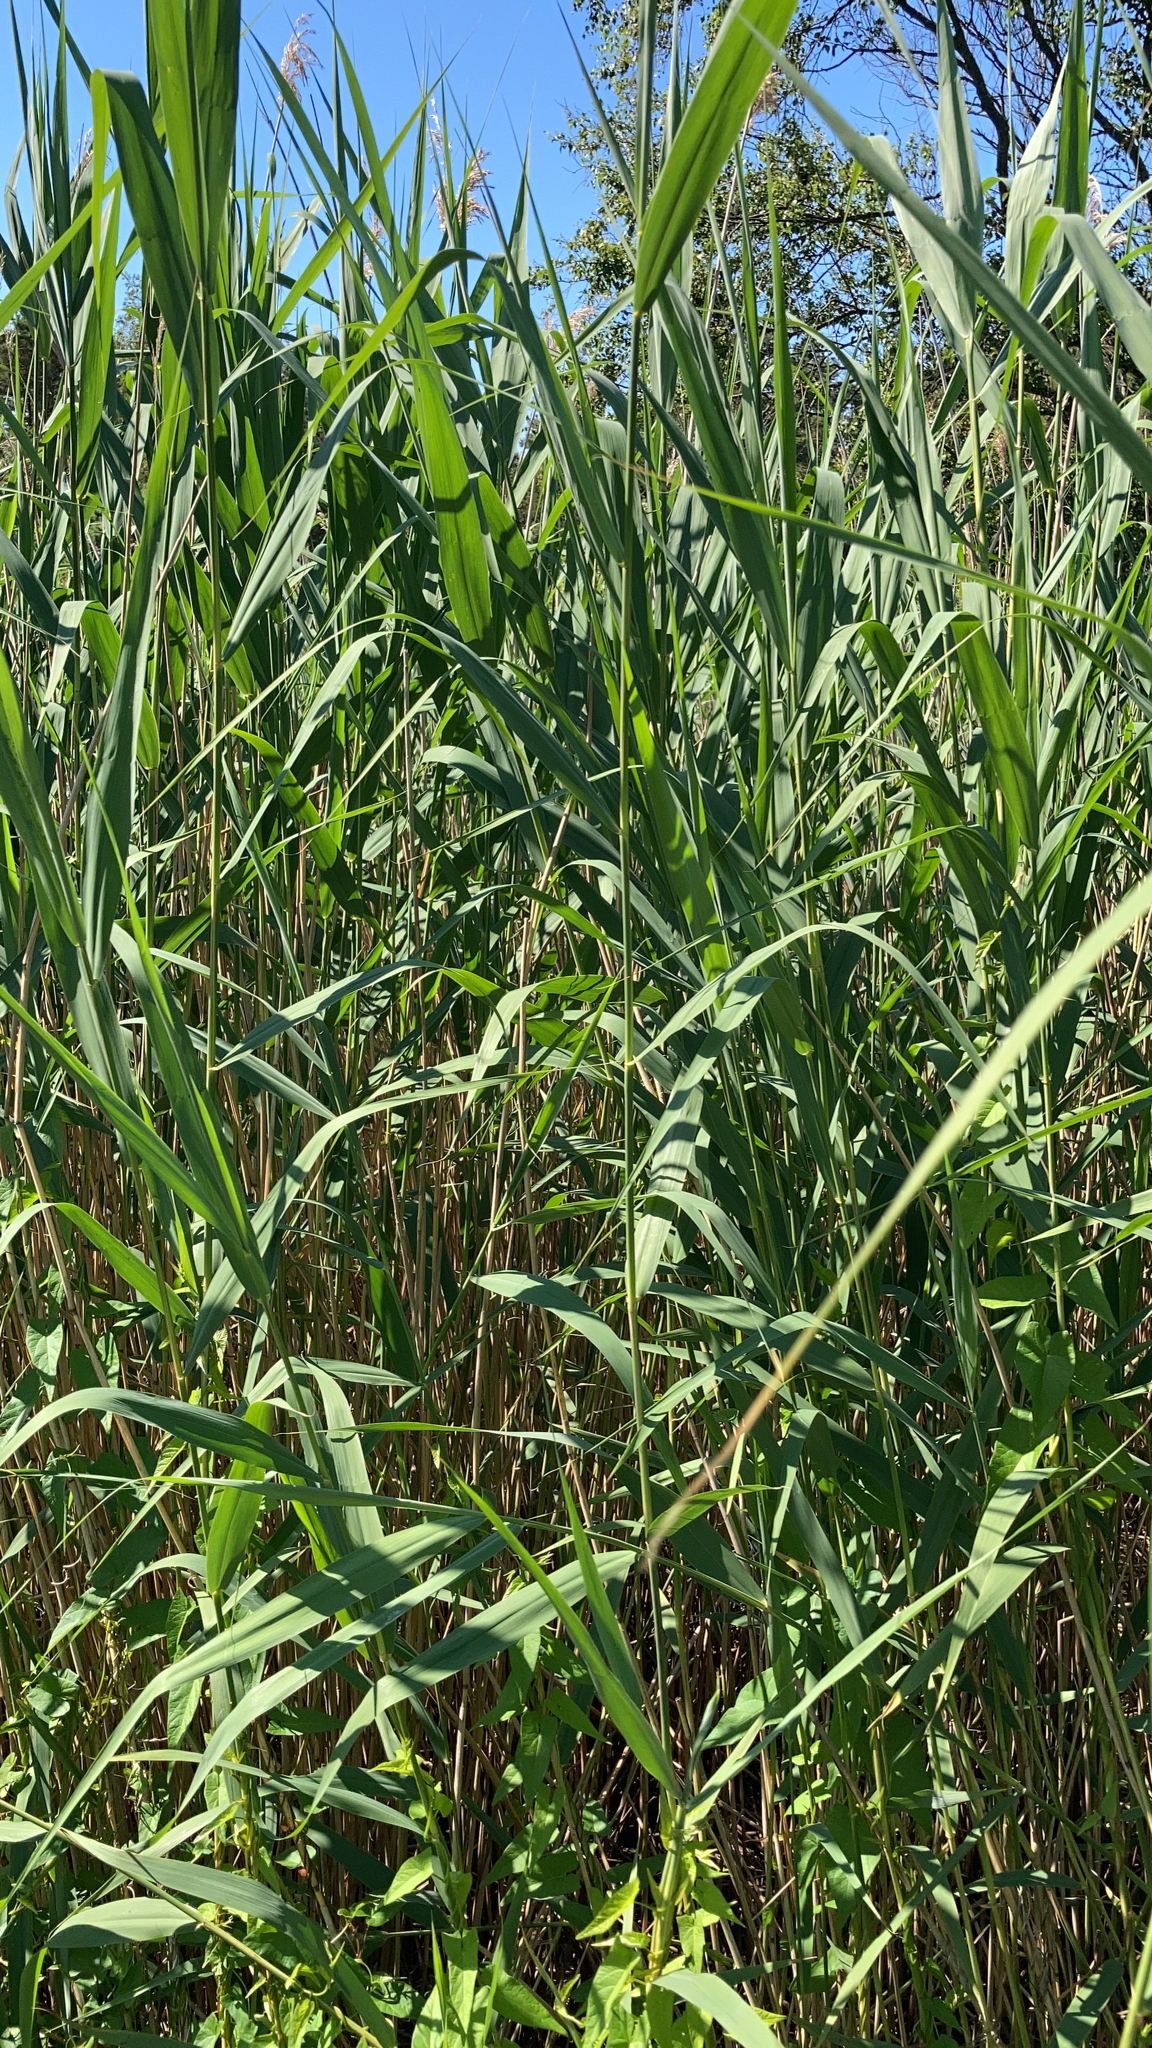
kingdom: Plantae
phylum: Tracheophyta
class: Liliopsida
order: Poales
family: Poaceae
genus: Phragmites
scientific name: Phragmites australis
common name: Common reed
